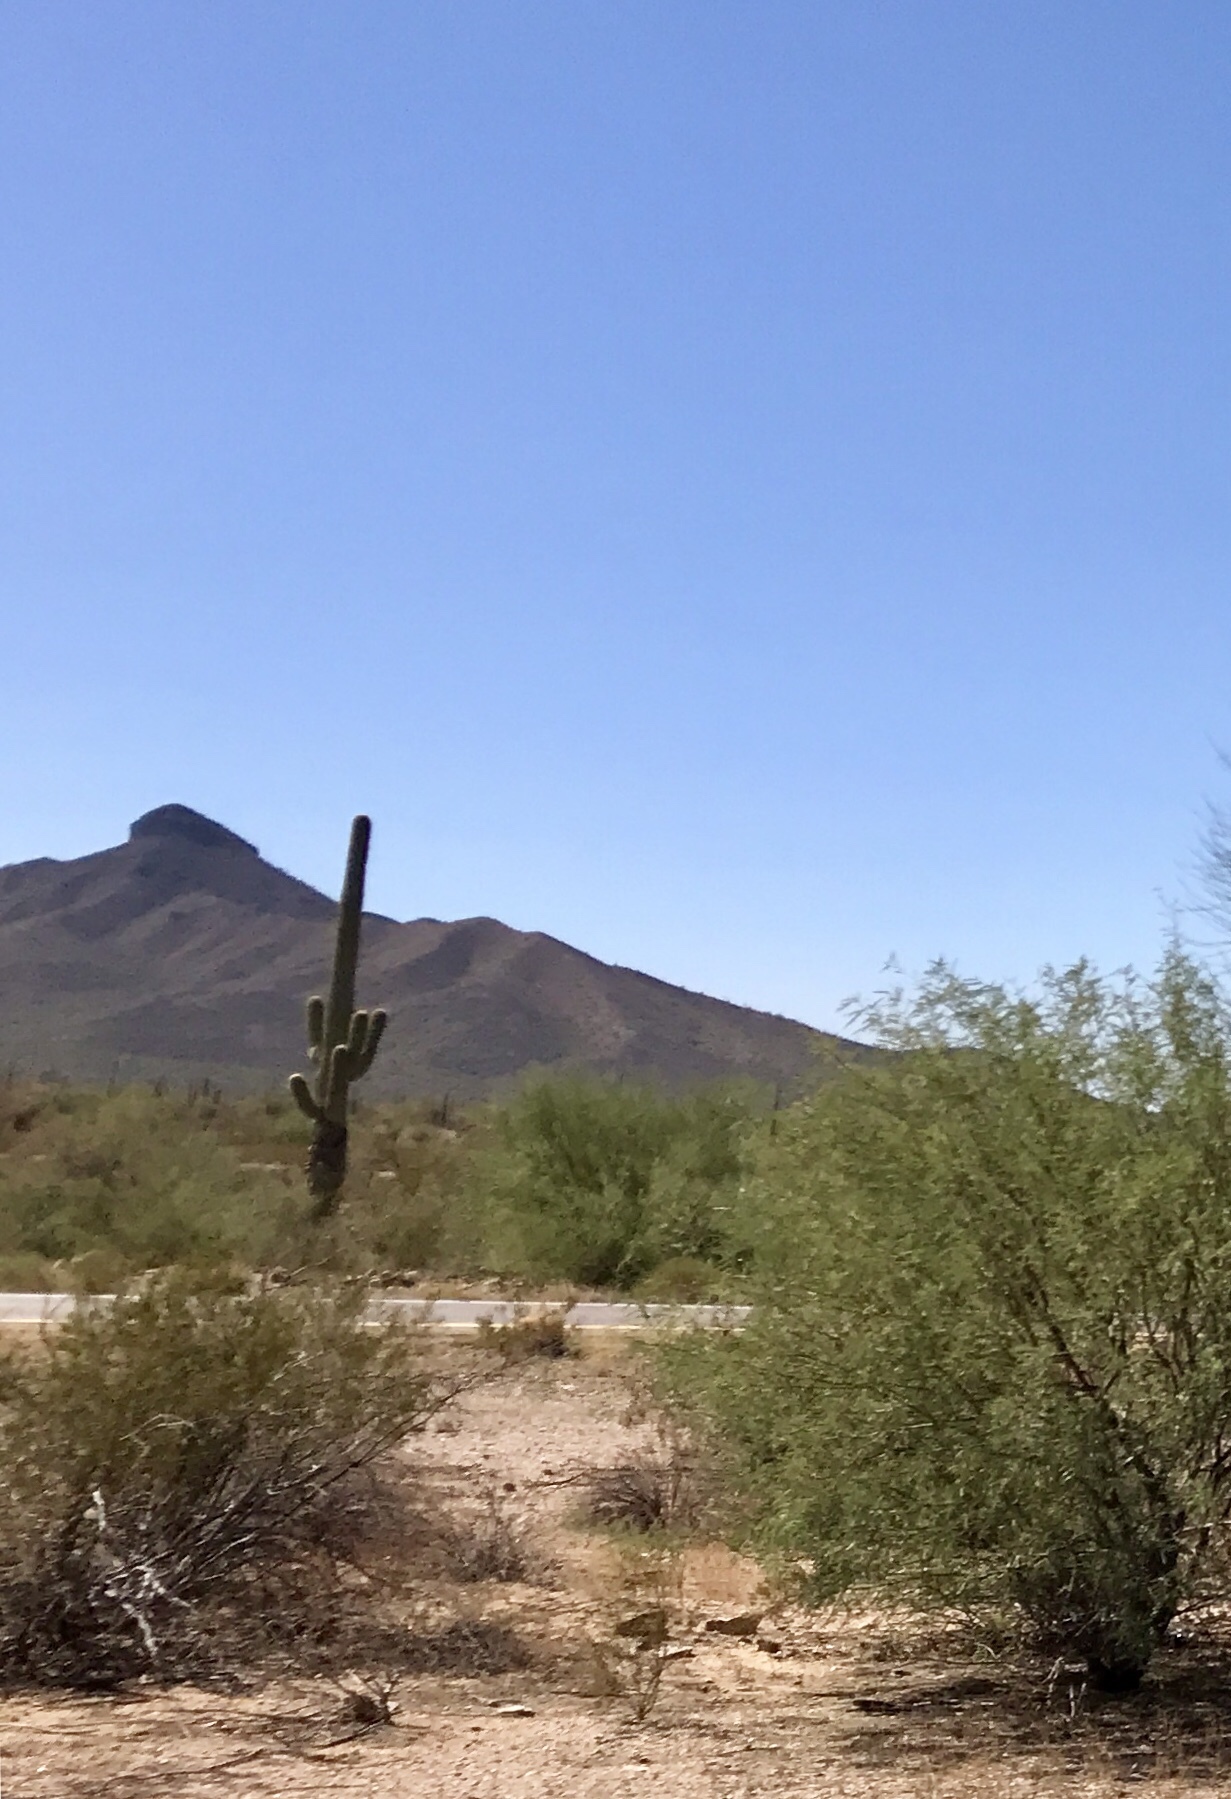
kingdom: Plantae
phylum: Tracheophyta
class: Magnoliopsida
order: Caryophyllales
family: Cactaceae
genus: Carnegiea
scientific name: Carnegiea gigantea
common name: Saguaro
